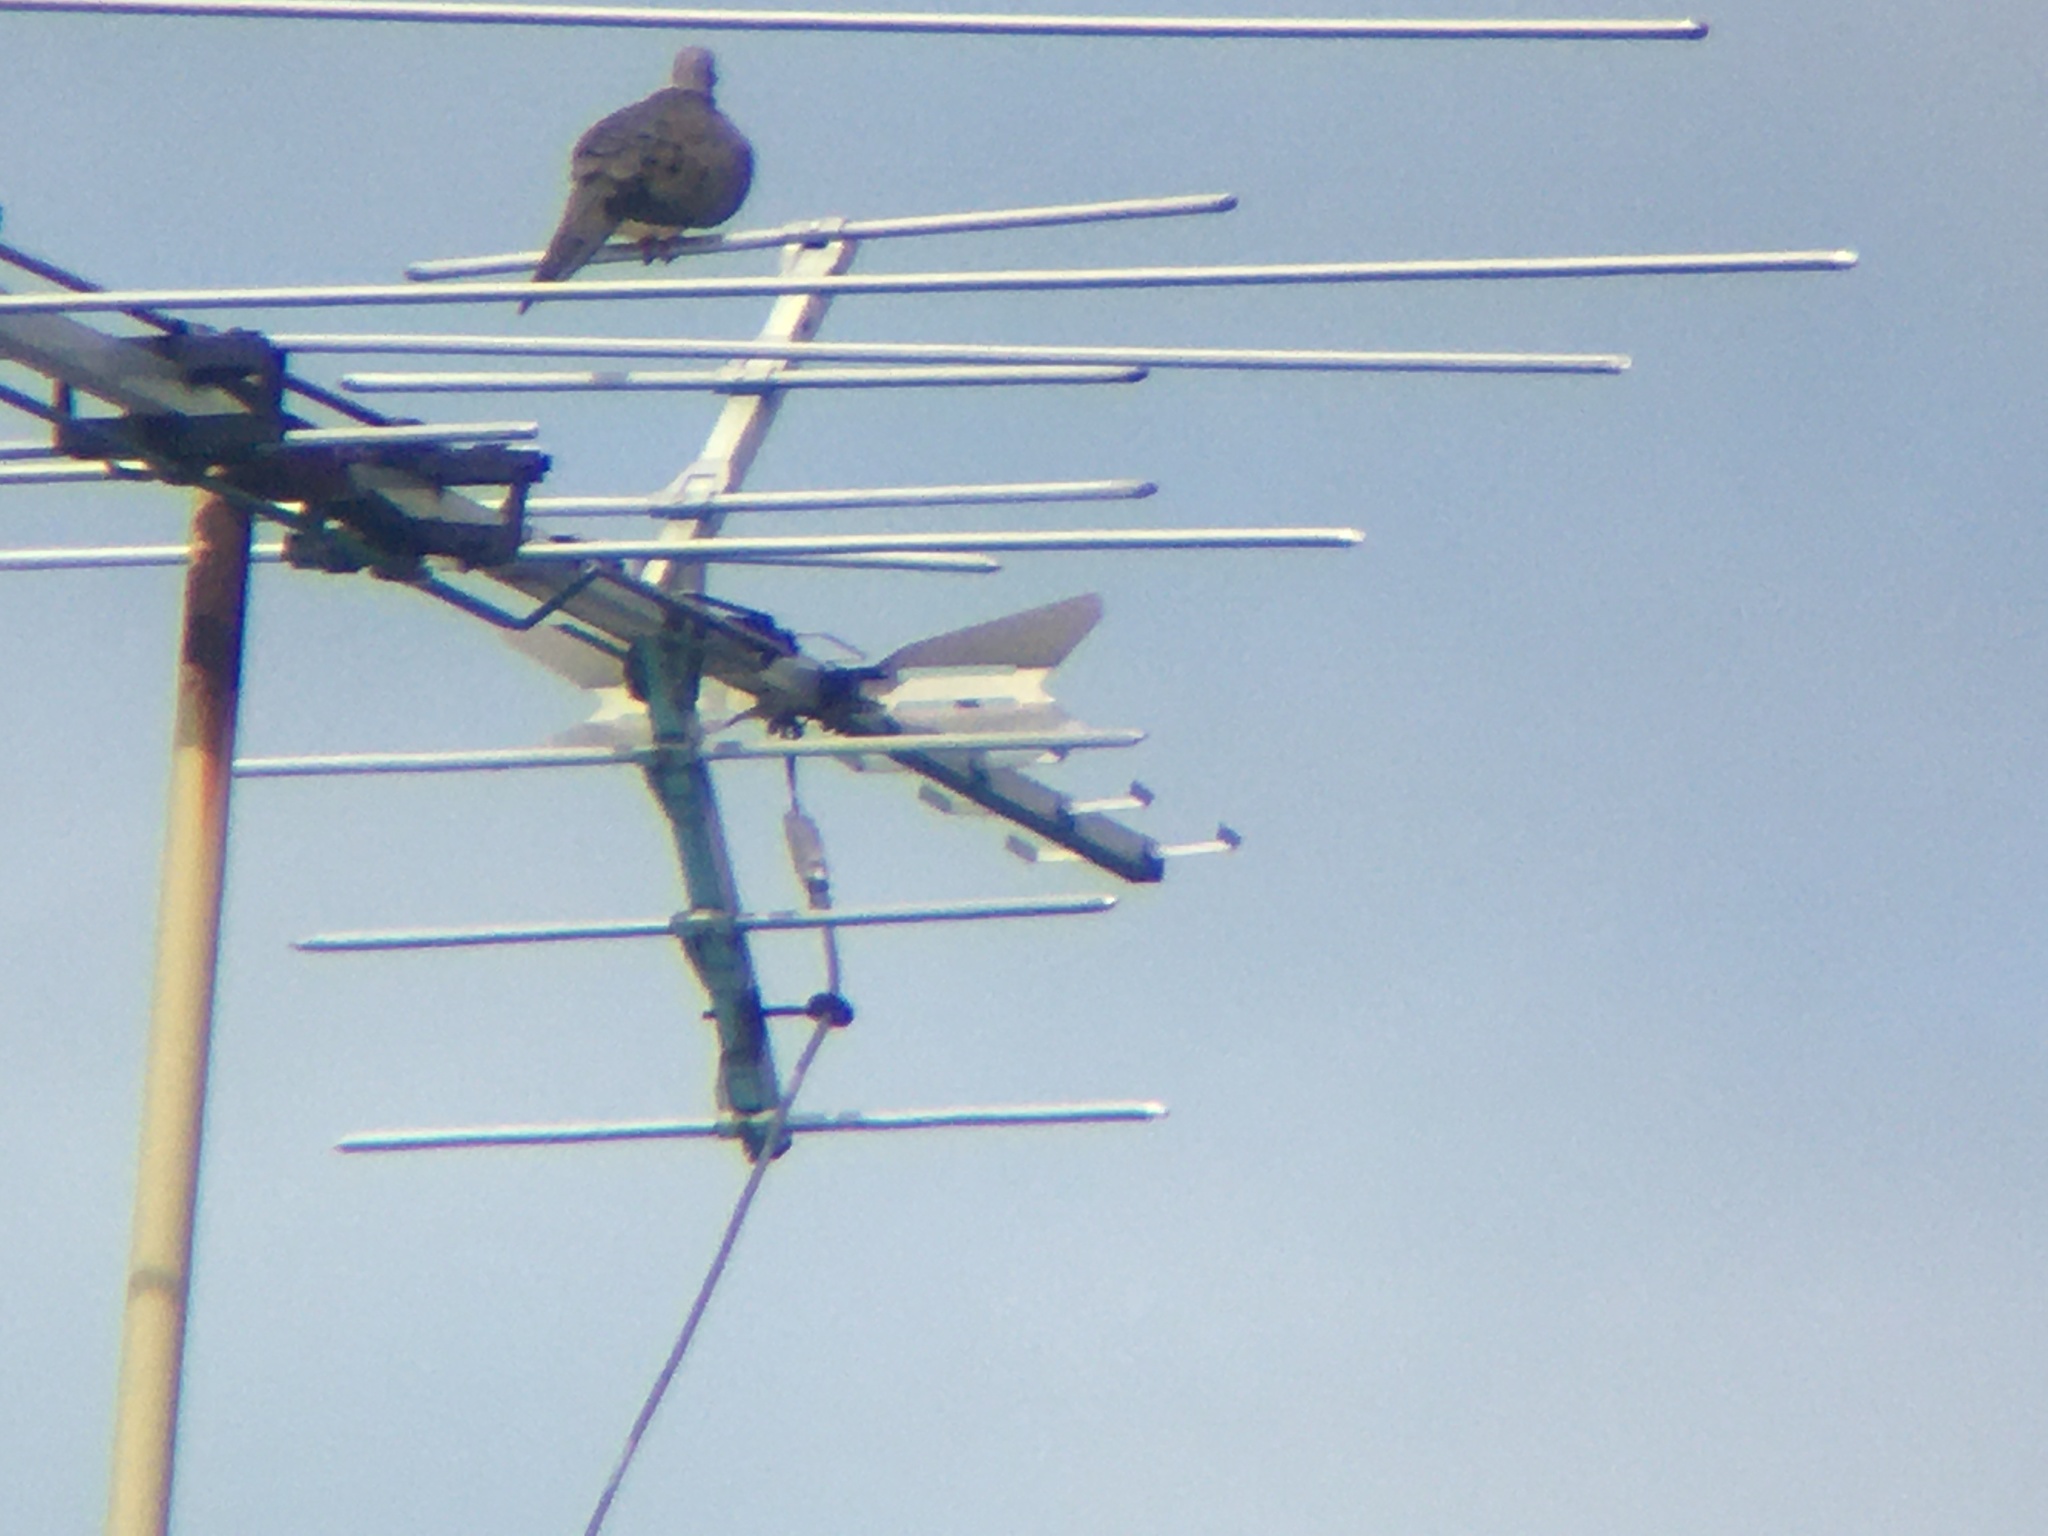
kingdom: Animalia
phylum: Chordata
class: Aves
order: Columbiformes
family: Columbidae
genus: Zenaida
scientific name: Zenaida macroura
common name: Mourning dove
